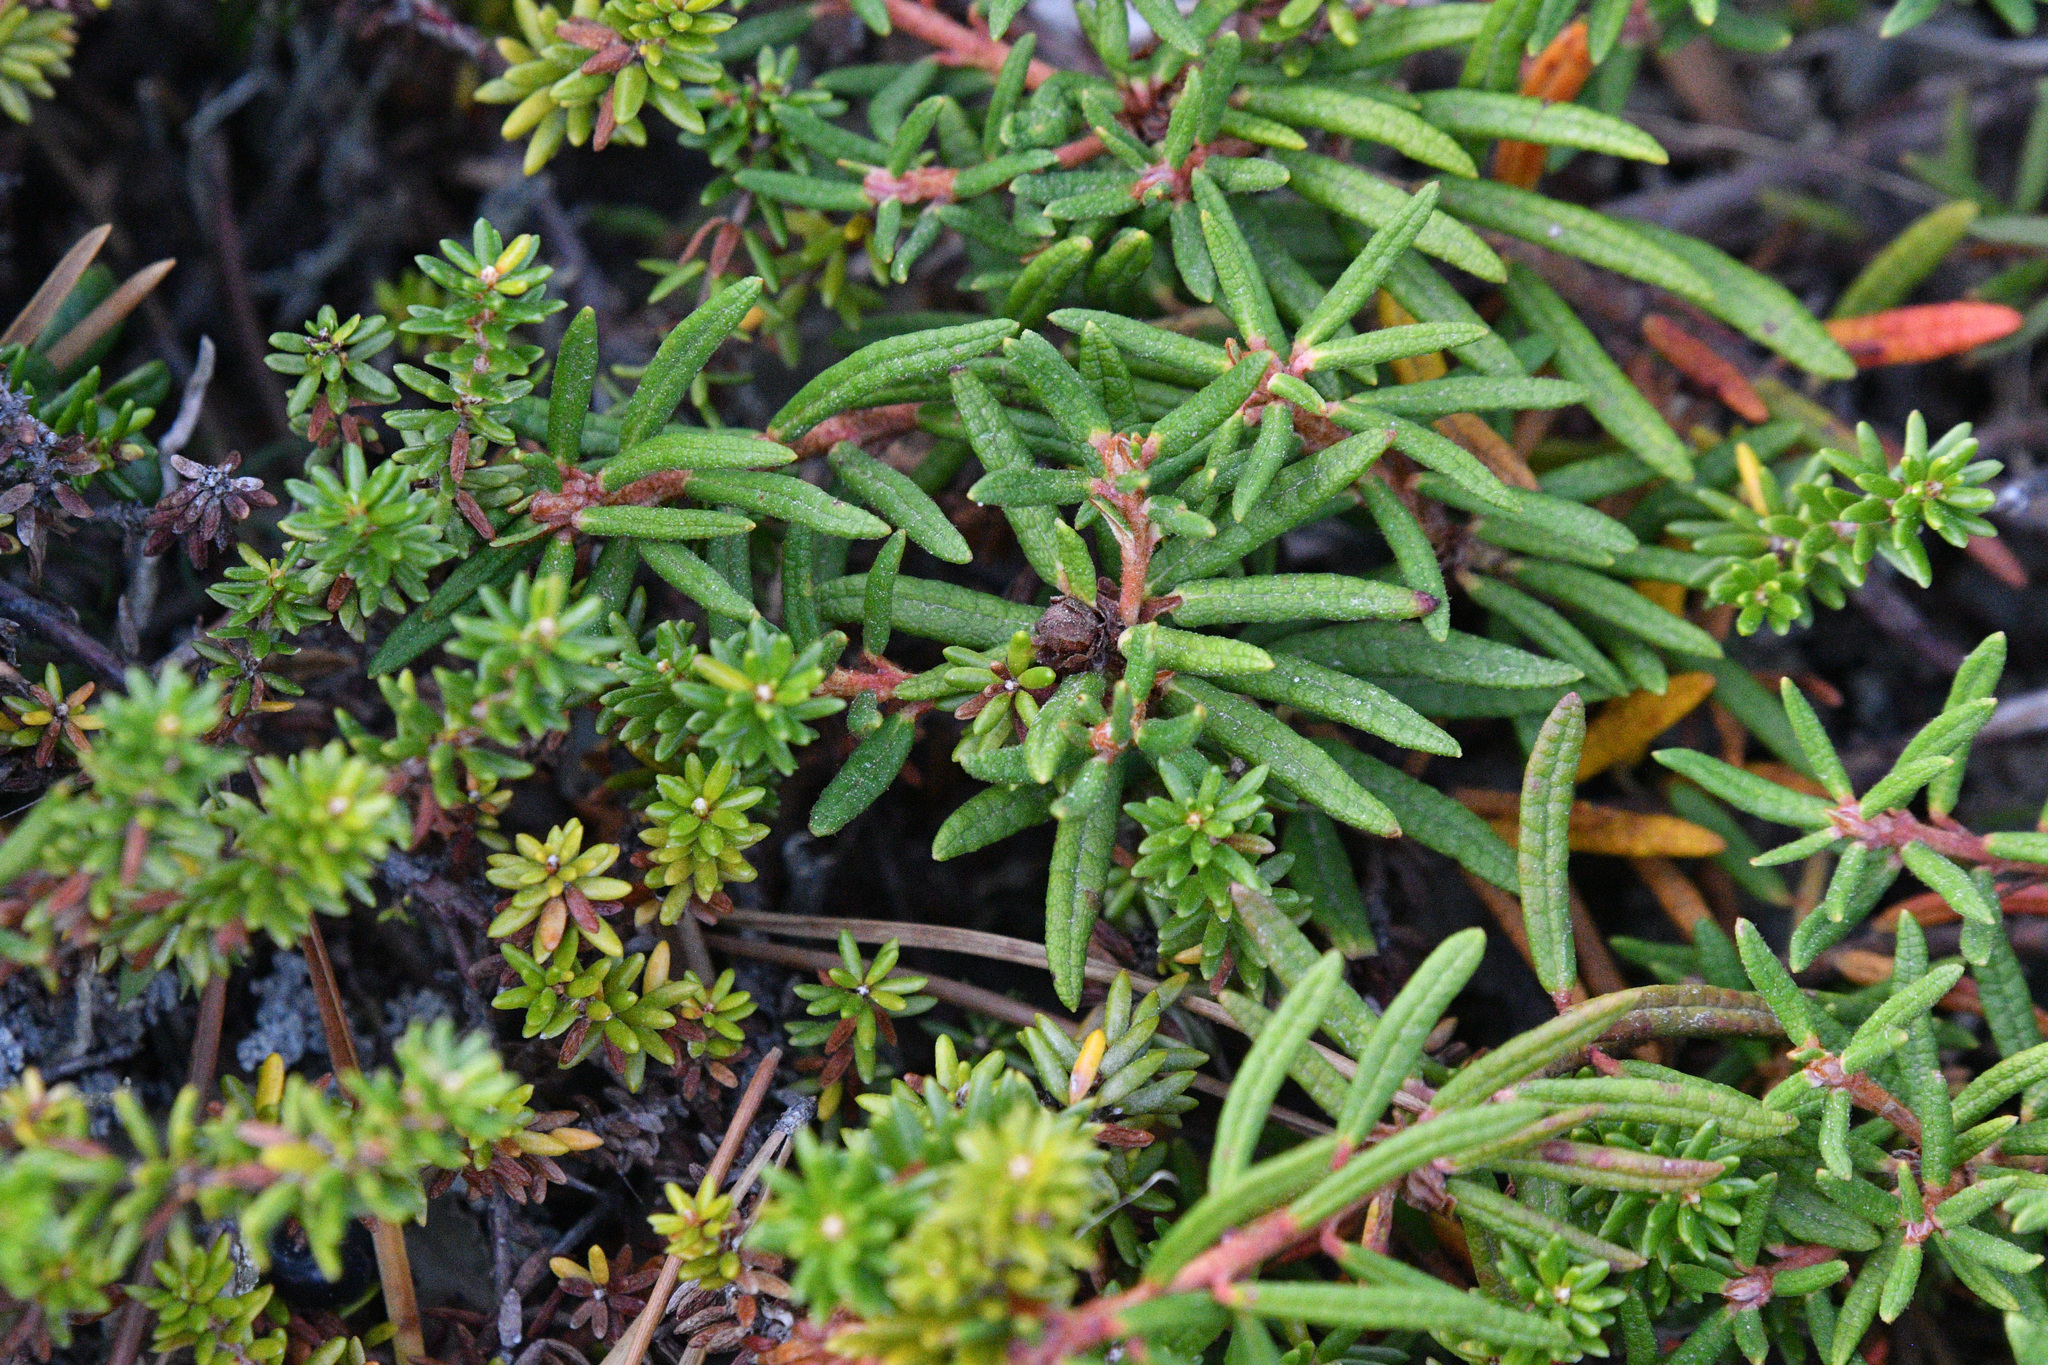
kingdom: Plantae
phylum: Tracheophyta
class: Magnoliopsida
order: Ericales
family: Ericaceae
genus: Rhododendron
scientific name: Rhododendron groenlandicum
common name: Bog labrador tea
